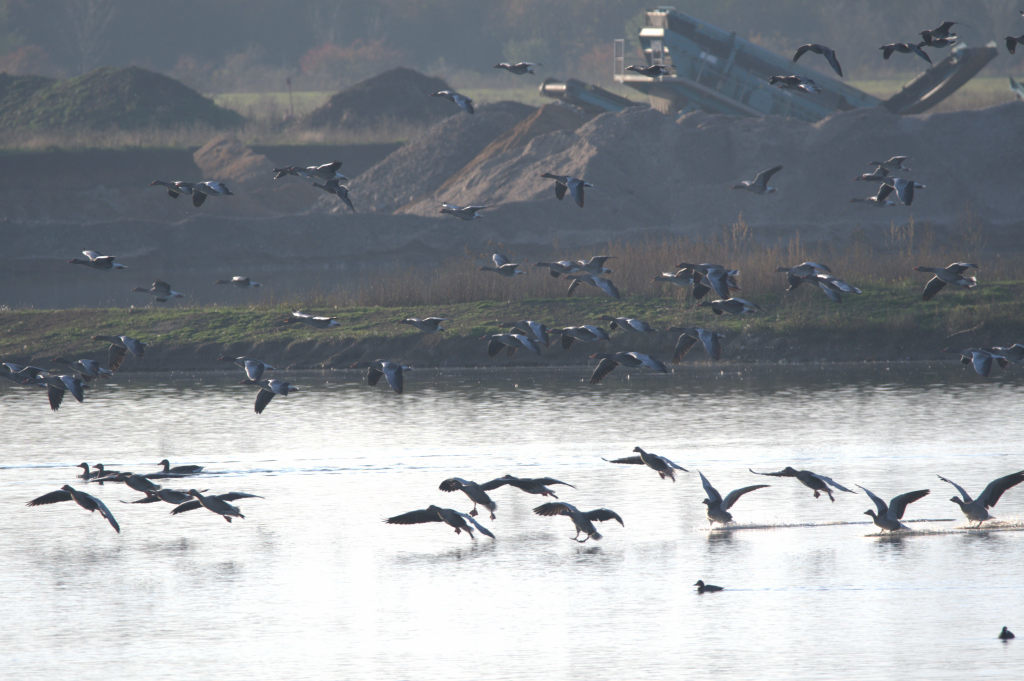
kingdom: Animalia
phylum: Chordata
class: Aves
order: Anseriformes
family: Anatidae
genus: Anser
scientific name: Anser anser
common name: Greylag goose
